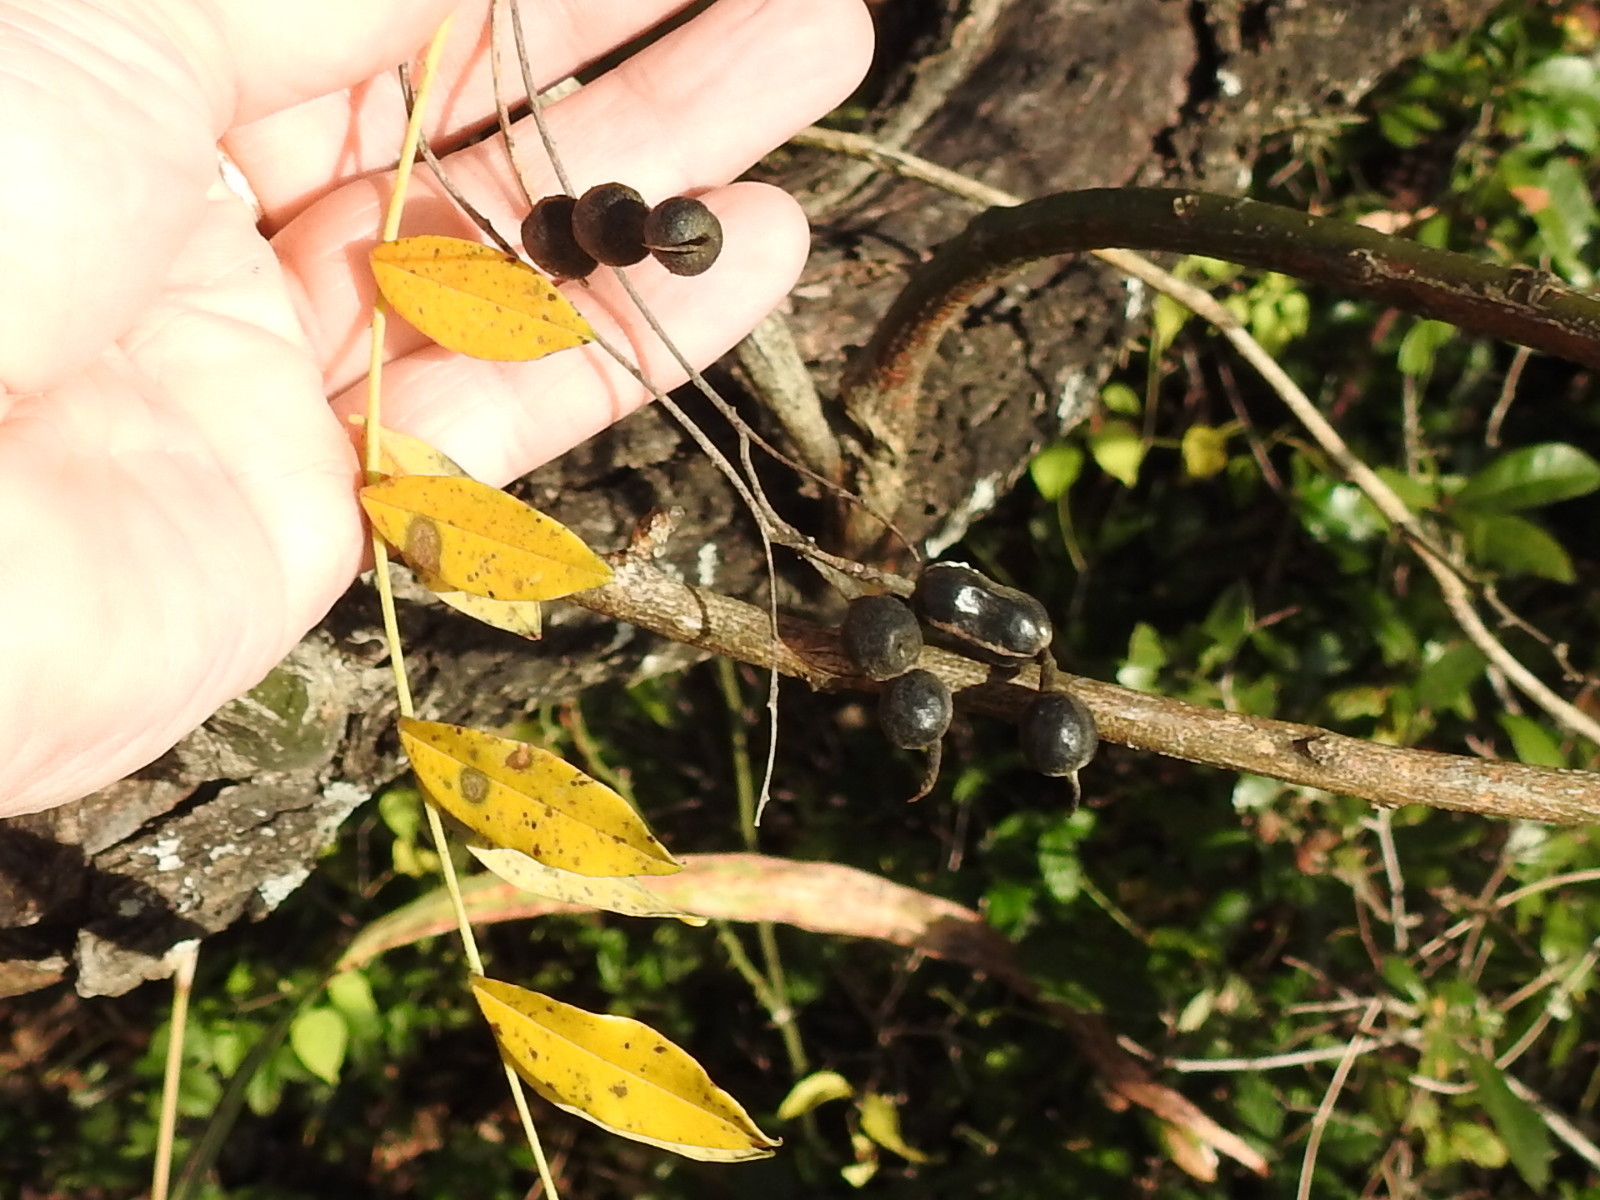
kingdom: Plantae
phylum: Tracheophyta
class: Magnoliopsida
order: Fabales
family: Fabaceae
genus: Styphnolobium
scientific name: Styphnolobium affine
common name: Texas sophora
